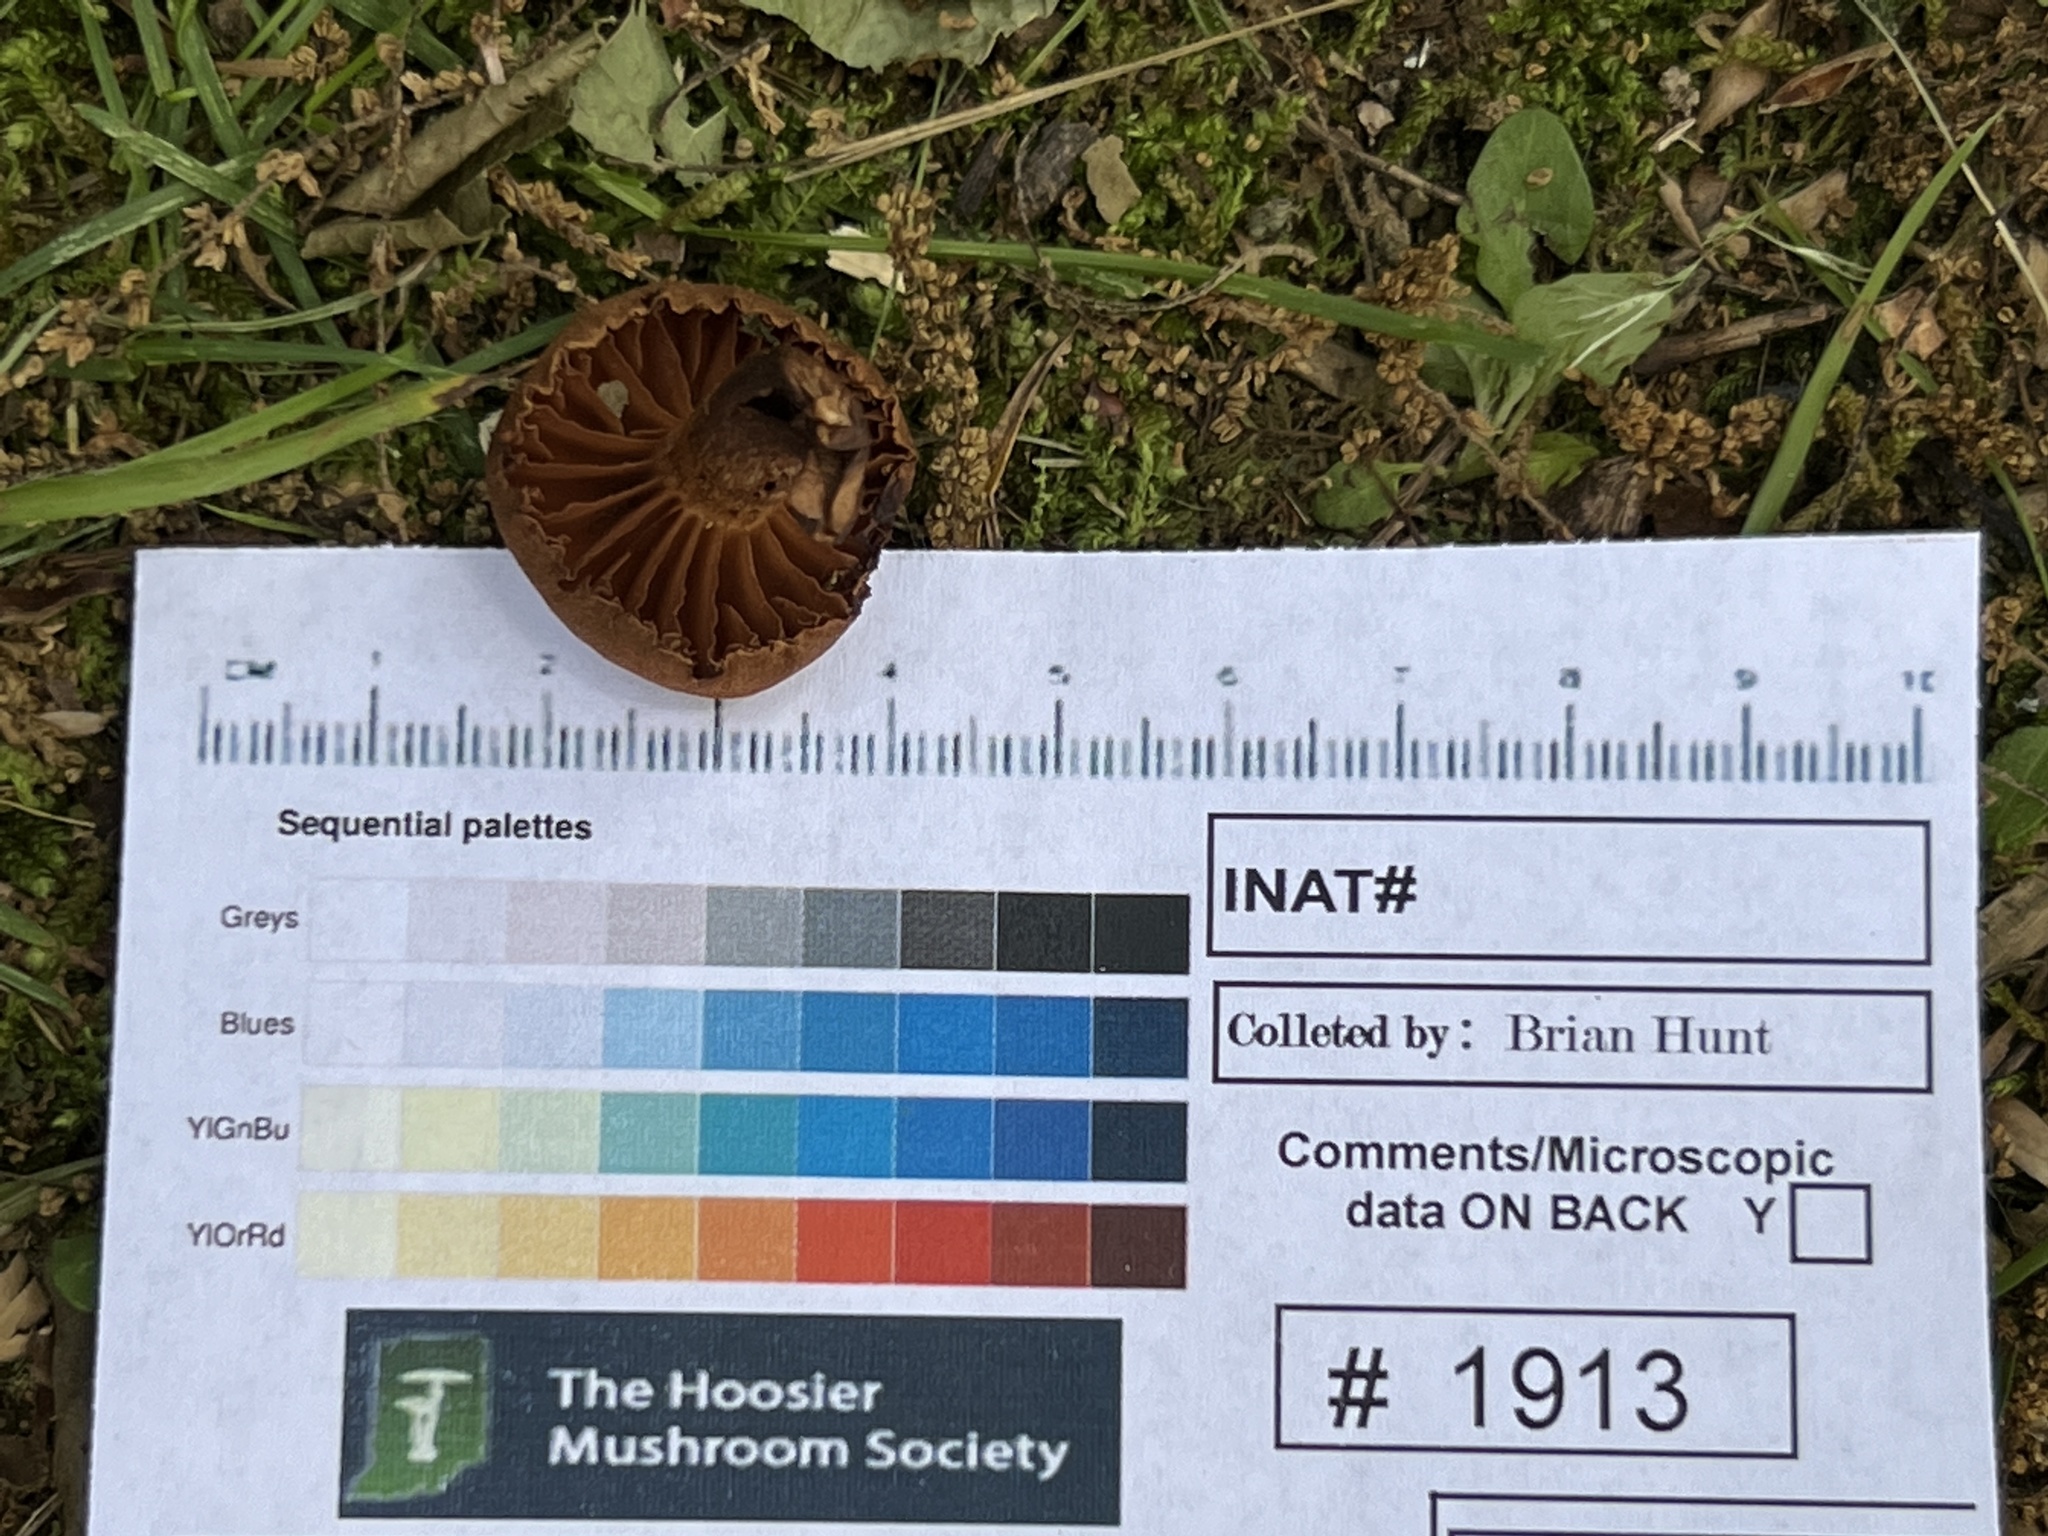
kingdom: Fungi
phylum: Basidiomycota
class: Agaricomycetes
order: Agaricales
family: Cortinariaceae
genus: Cortinarius
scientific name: Cortinarius
